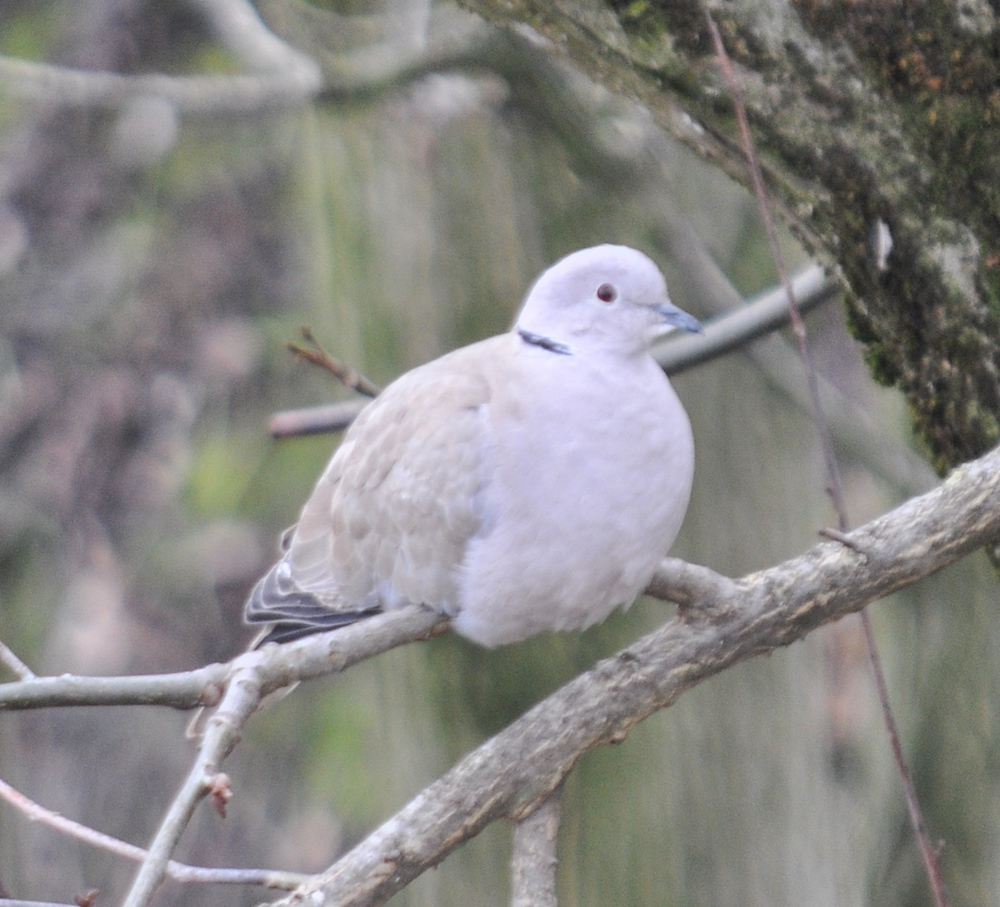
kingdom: Animalia
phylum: Chordata
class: Aves
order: Columbiformes
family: Columbidae
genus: Streptopelia
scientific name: Streptopelia decaocto
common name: Eurasian collared dove
